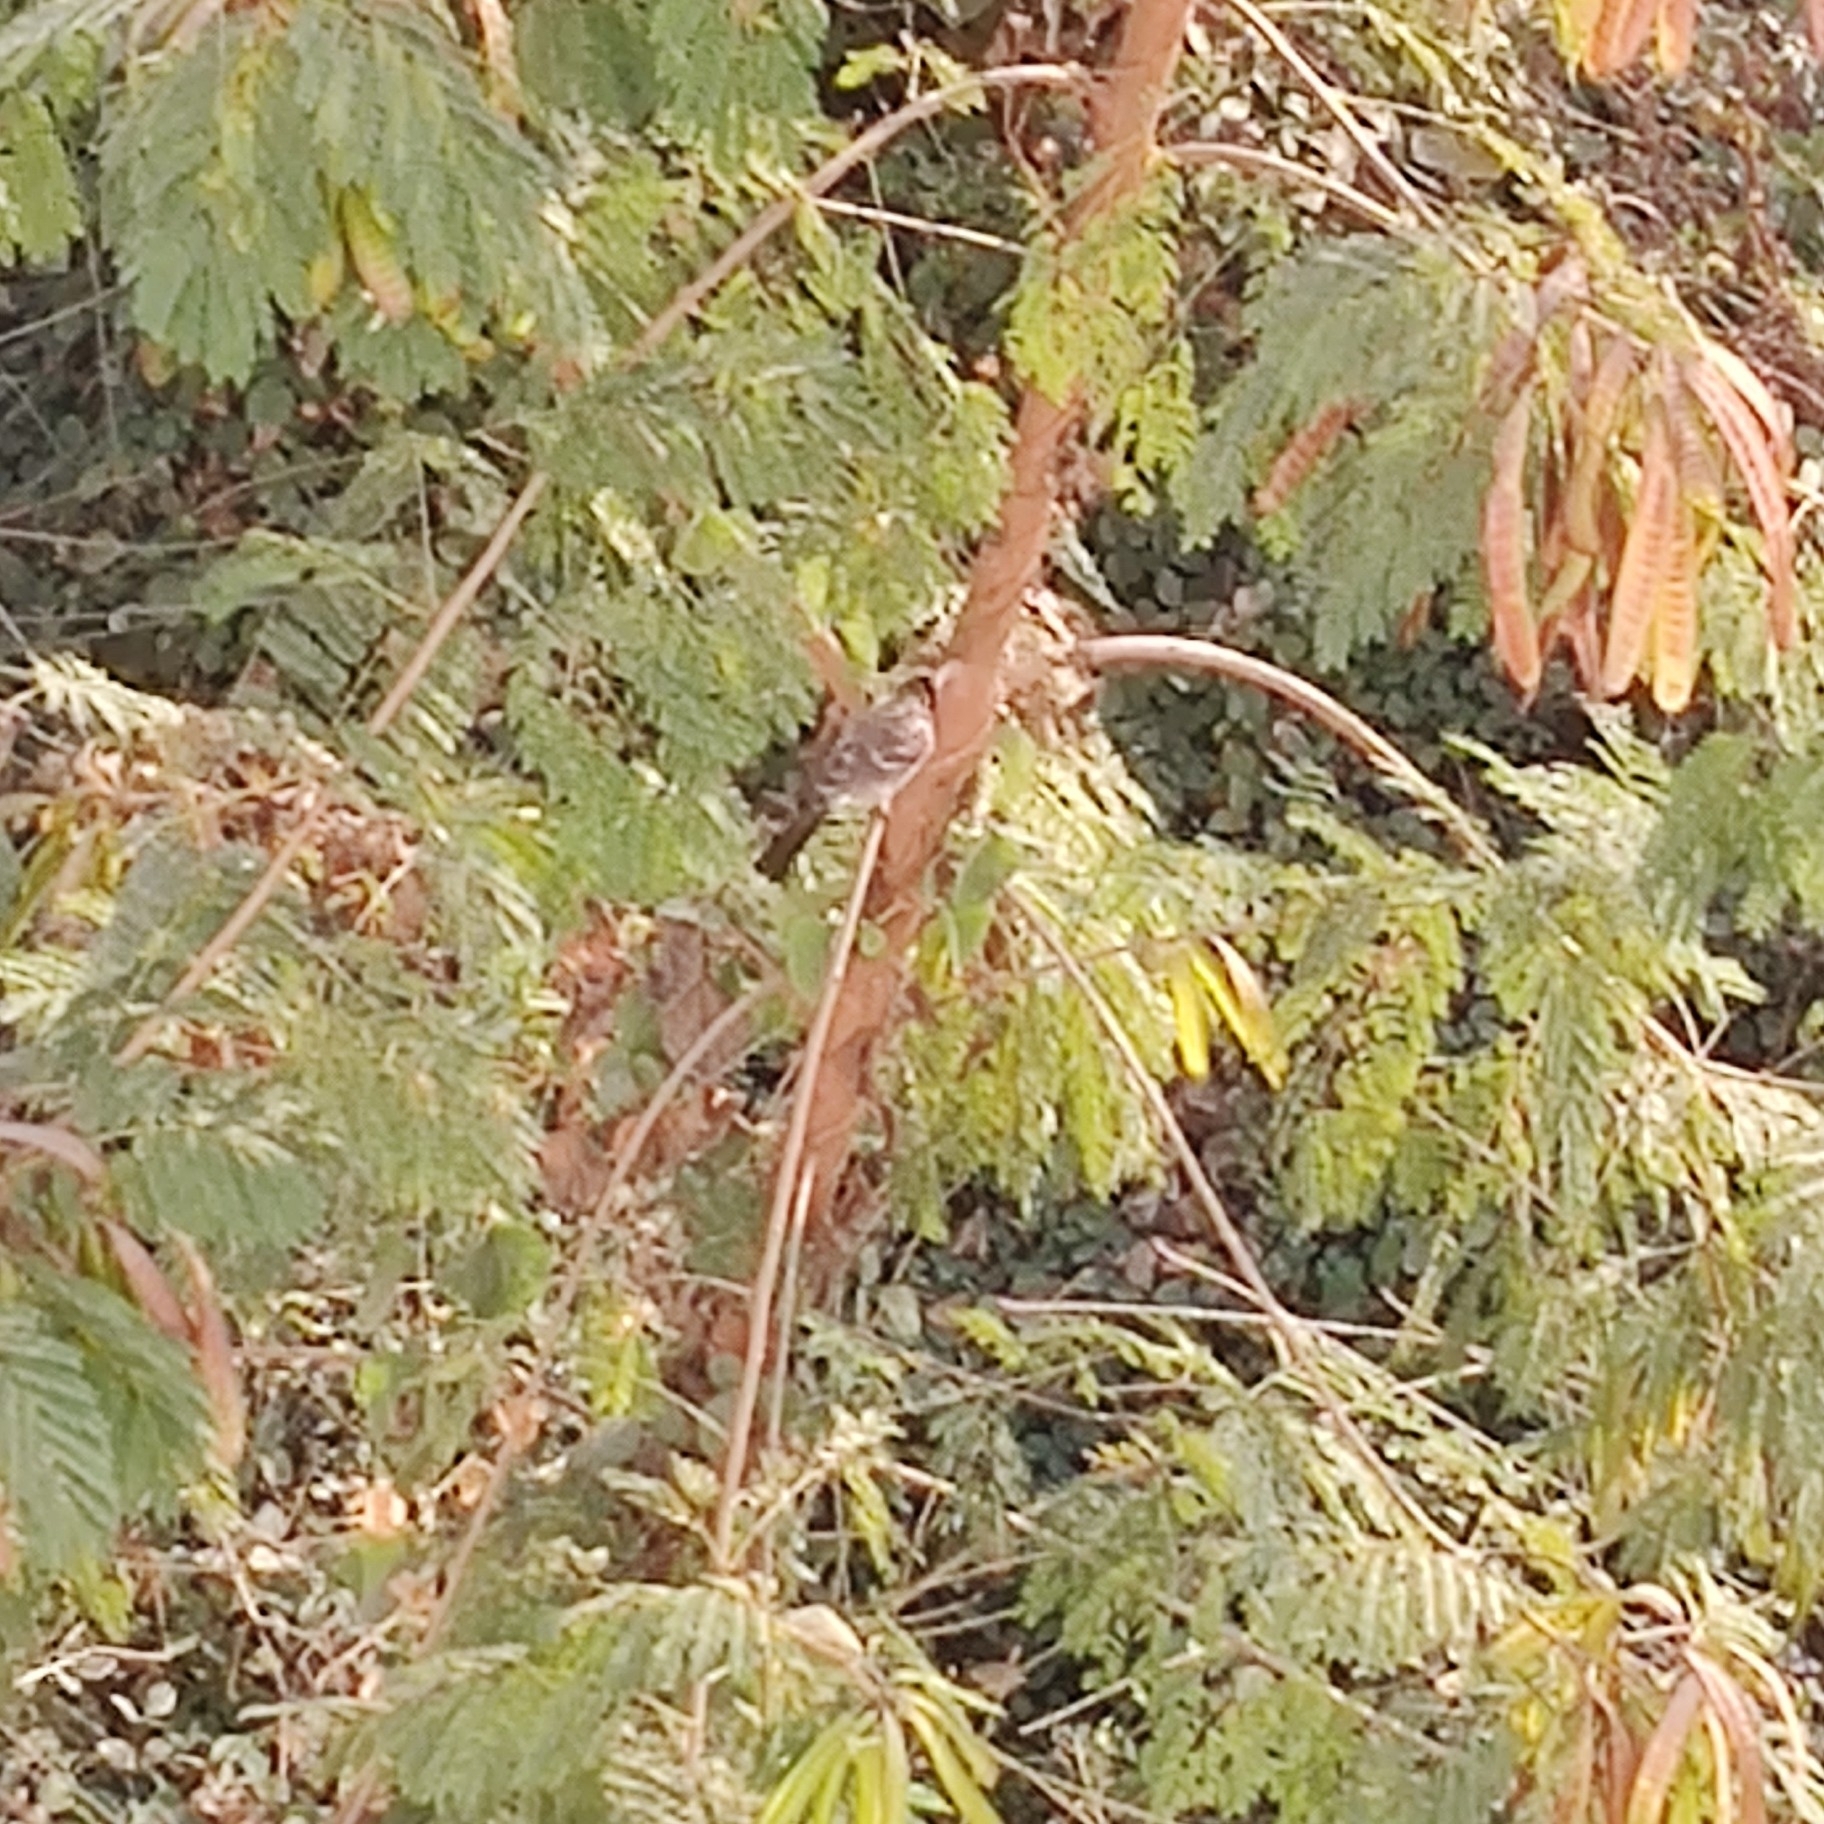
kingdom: Animalia
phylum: Chordata
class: Aves
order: Passeriformes
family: Pycnonotidae
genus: Pycnonotus
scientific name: Pycnonotus cafer
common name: Red-vented bulbul
